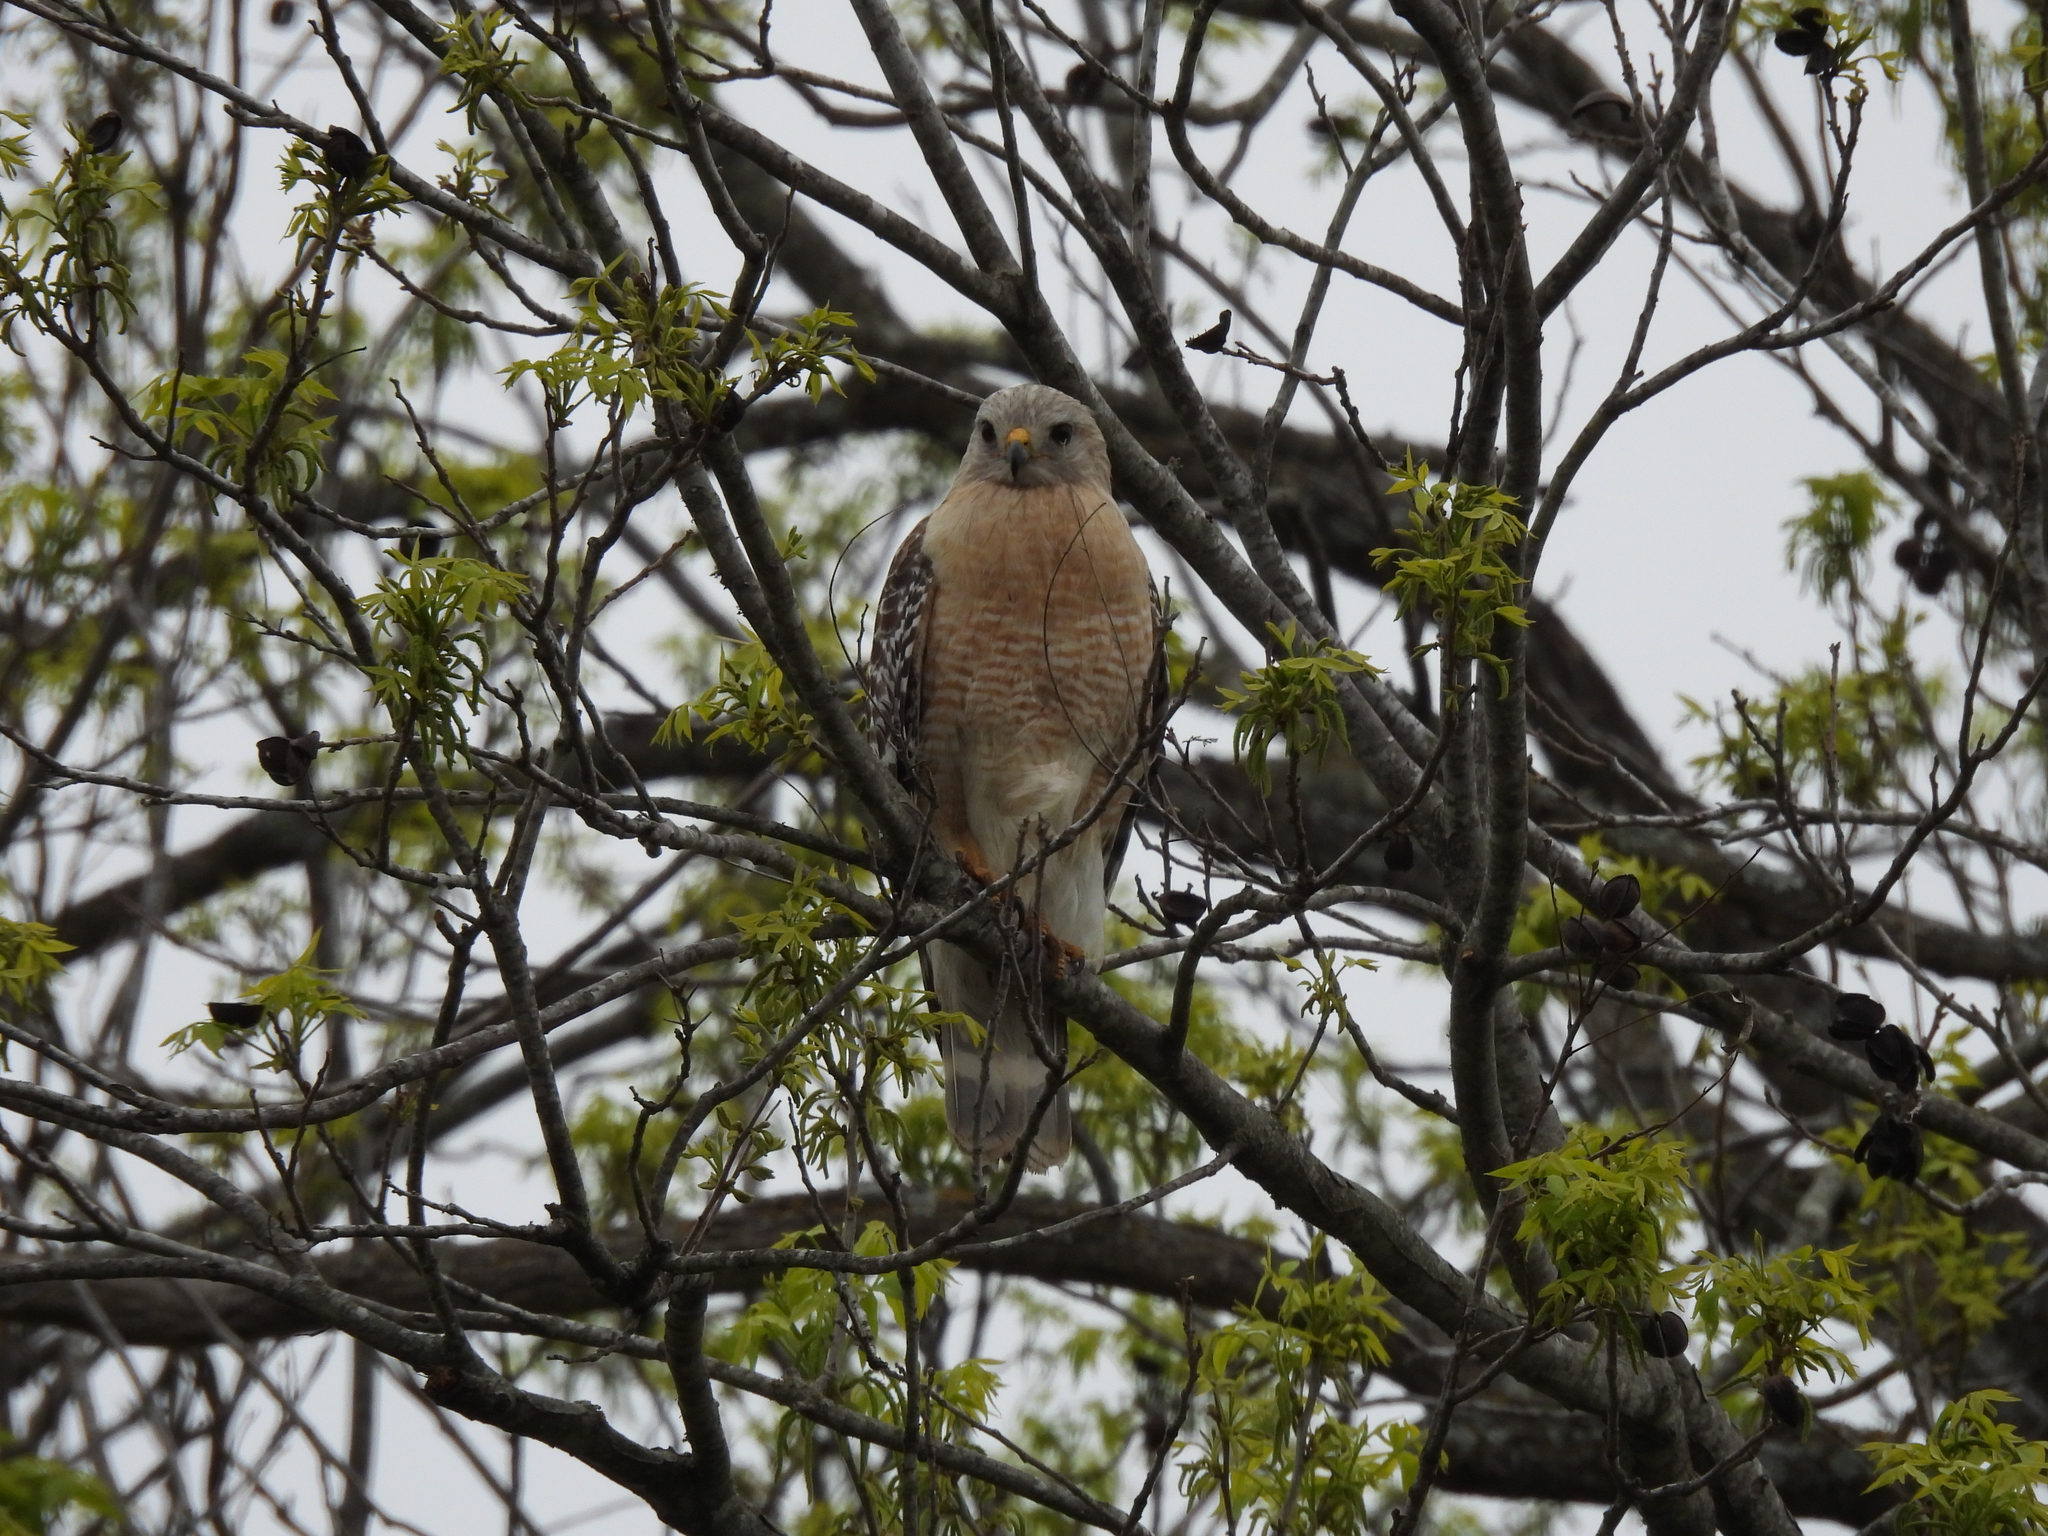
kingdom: Animalia
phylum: Chordata
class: Aves
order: Accipitriformes
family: Accipitridae
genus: Buteo
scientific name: Buteo lineatus
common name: Red-shouldered hawk
